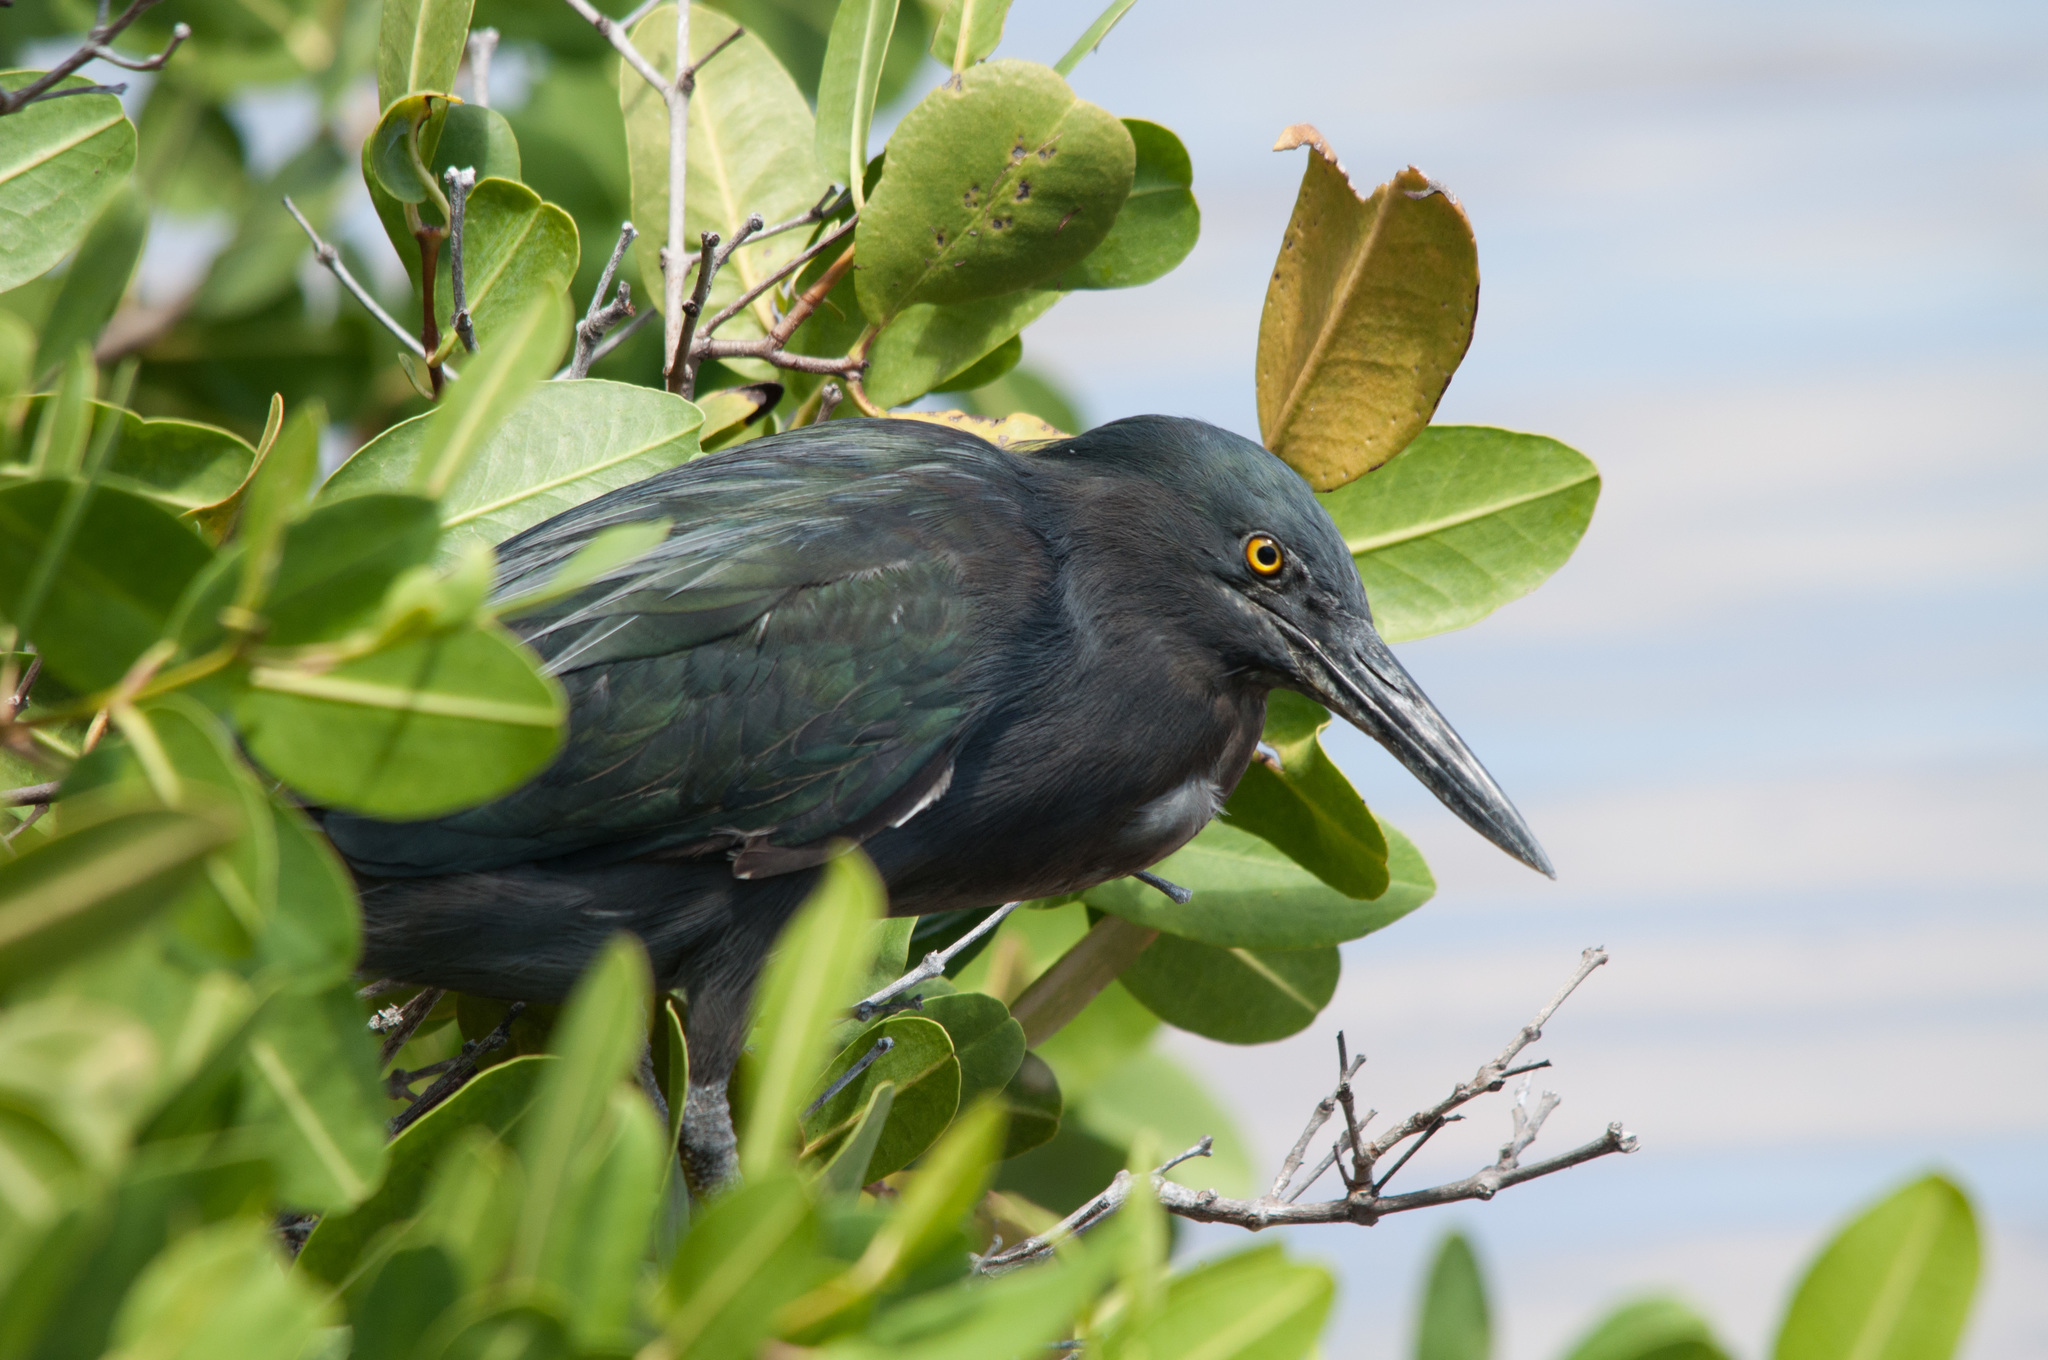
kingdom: Animalia
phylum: Chordata
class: Aves
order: Pelecaniformes
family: Ardeidae
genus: Butorides
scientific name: Butorides striata
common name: Striated heron
